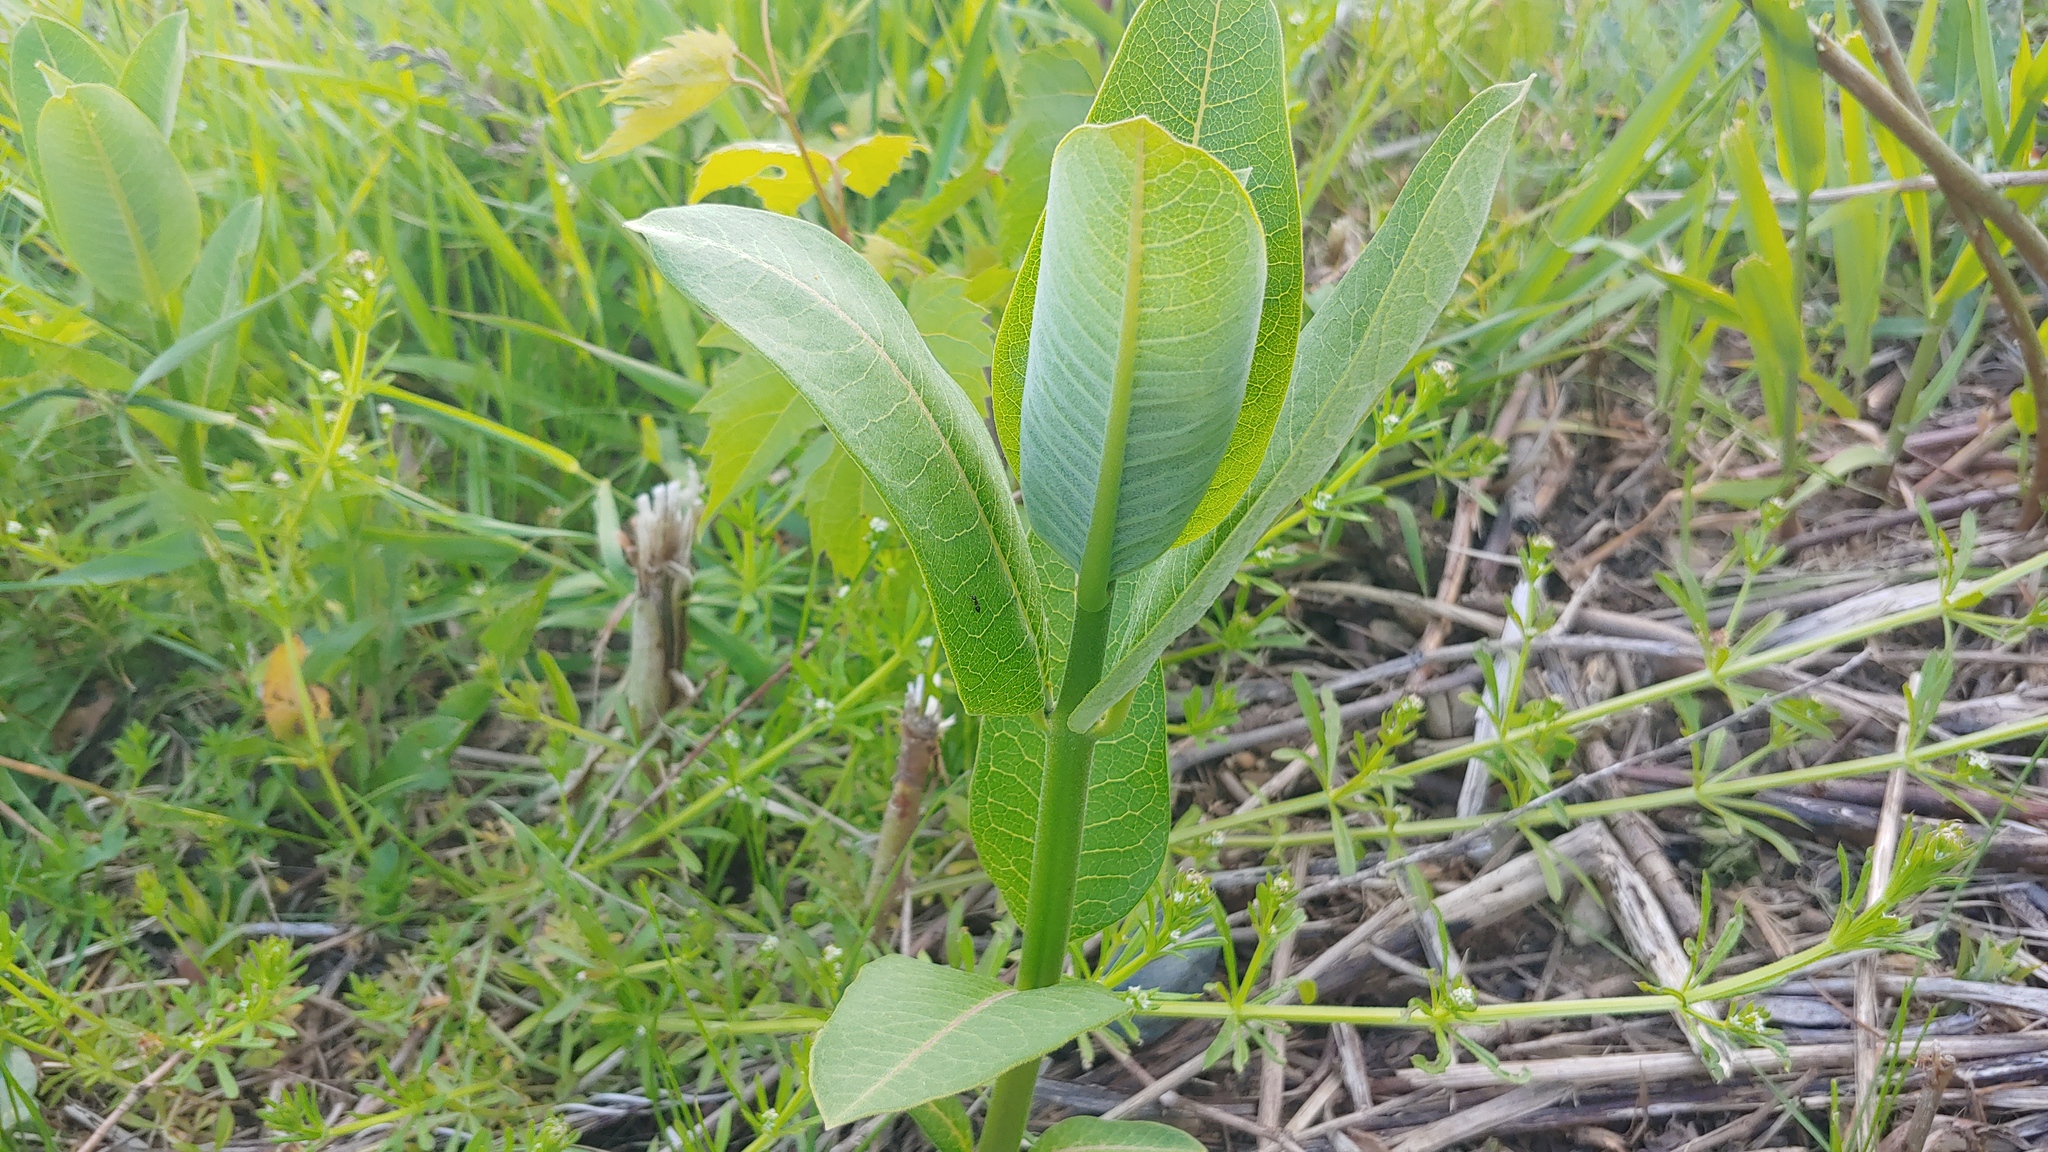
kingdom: Plantae
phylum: Tracheophyta
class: Magnoliopsida
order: Gentianales
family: Apocynaceae
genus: Asclepias
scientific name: Asclepias syriaca
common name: Common milkweed
